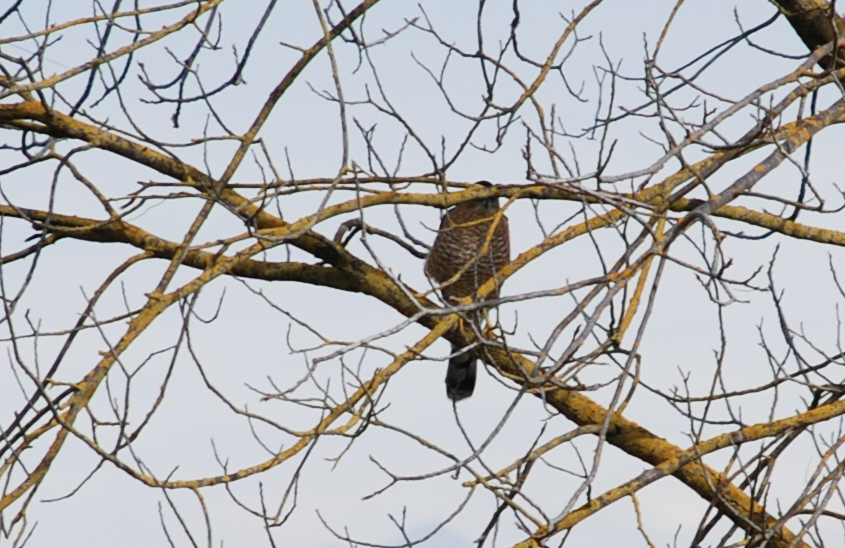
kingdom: Animalia
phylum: Chordata
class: Aves
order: Accipitriformes
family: Accipitridae
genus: Accipiter
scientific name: Accipiter cooperii
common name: Cooper's hawk
